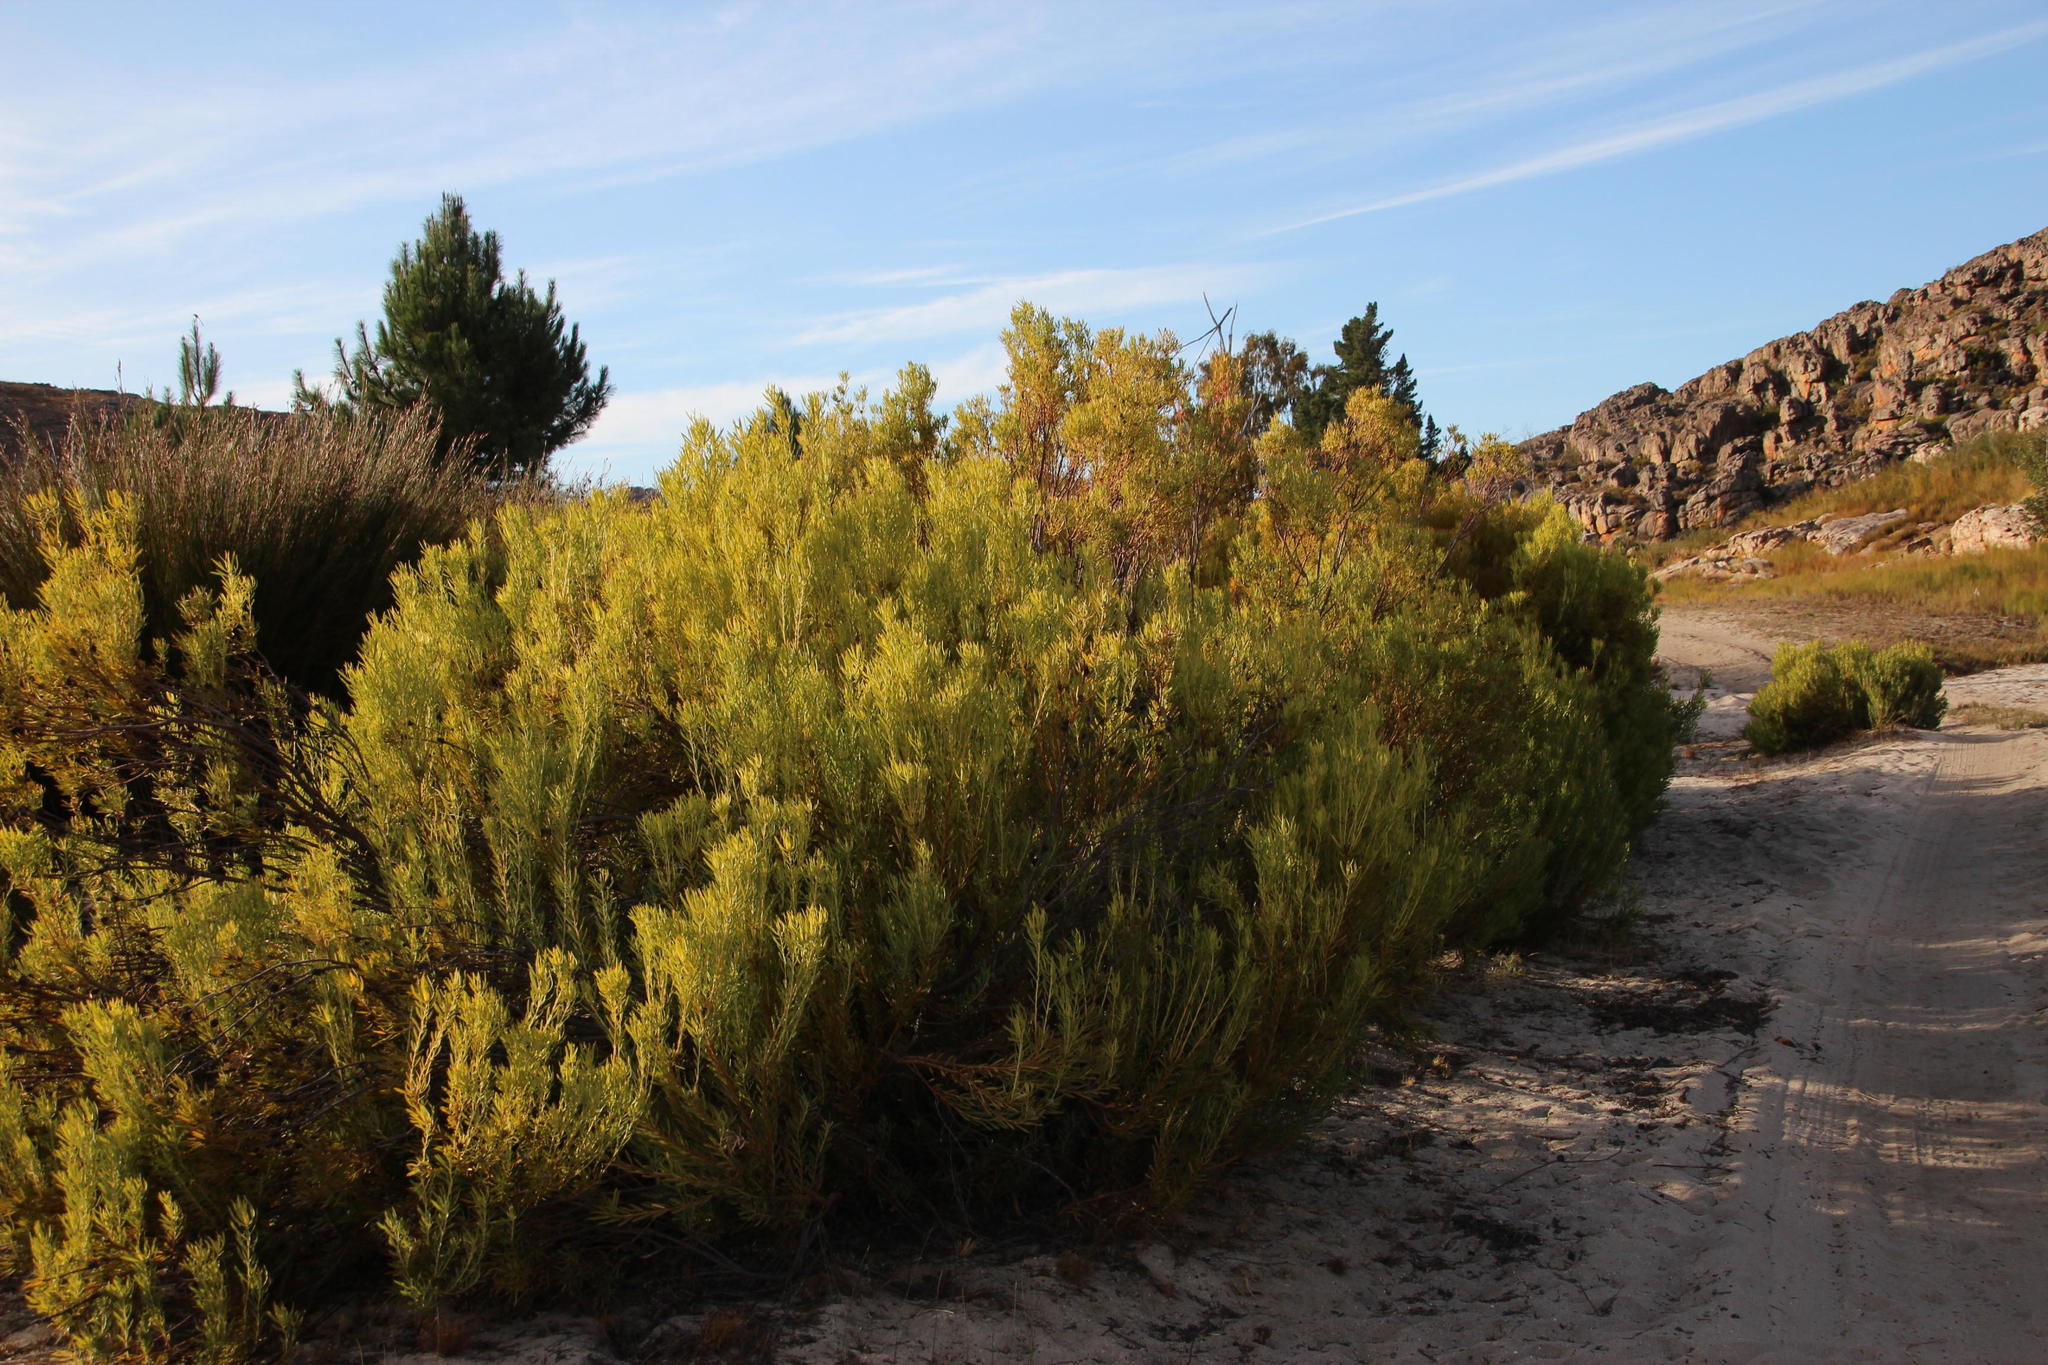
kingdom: Plantae
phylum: Tracheophyta
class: Magnoliopsida
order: Proteales
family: Proteaceae
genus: Leucadendron
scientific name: Leucadendron salignum
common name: Common sunshine conebush
